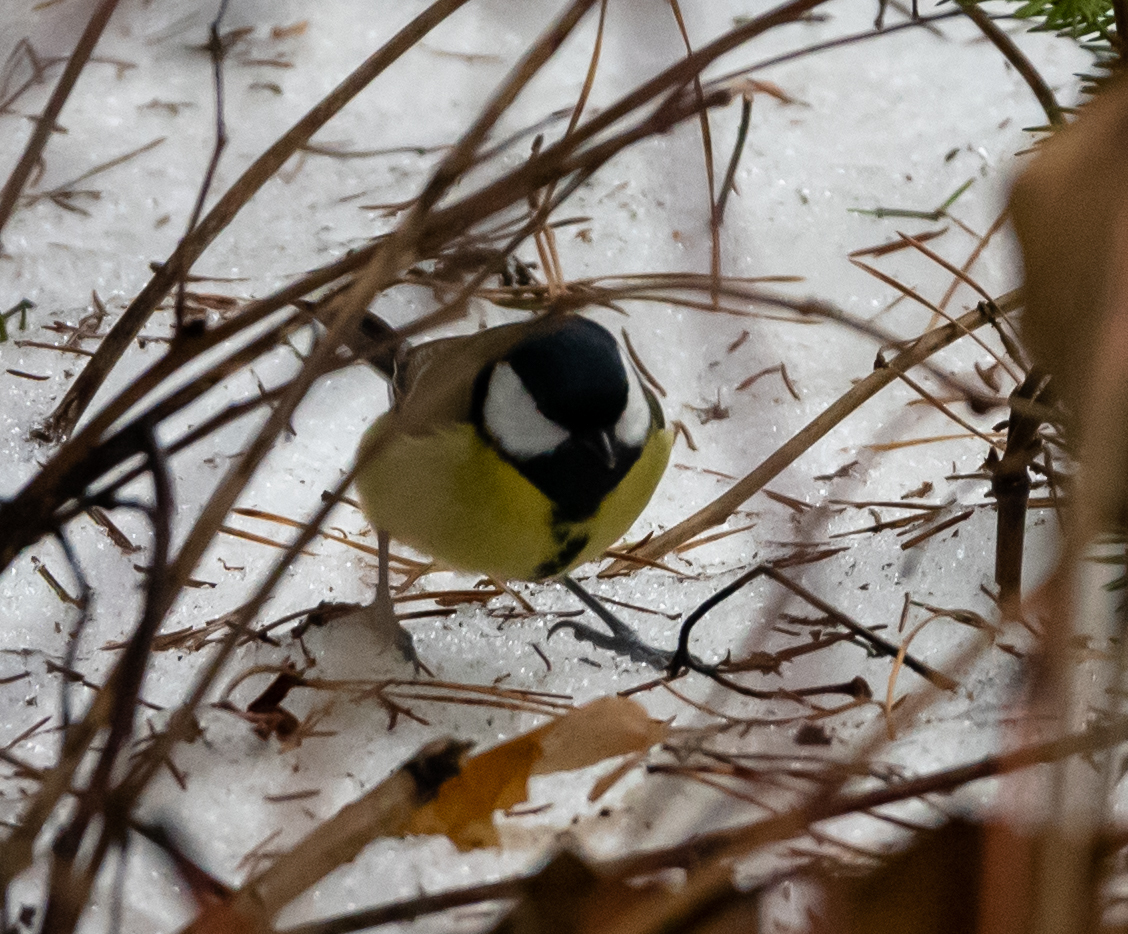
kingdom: Animalia
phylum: Chordata
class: Aves
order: Passeriformes
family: Paridae
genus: Parus
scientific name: Parus major
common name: Great tit
